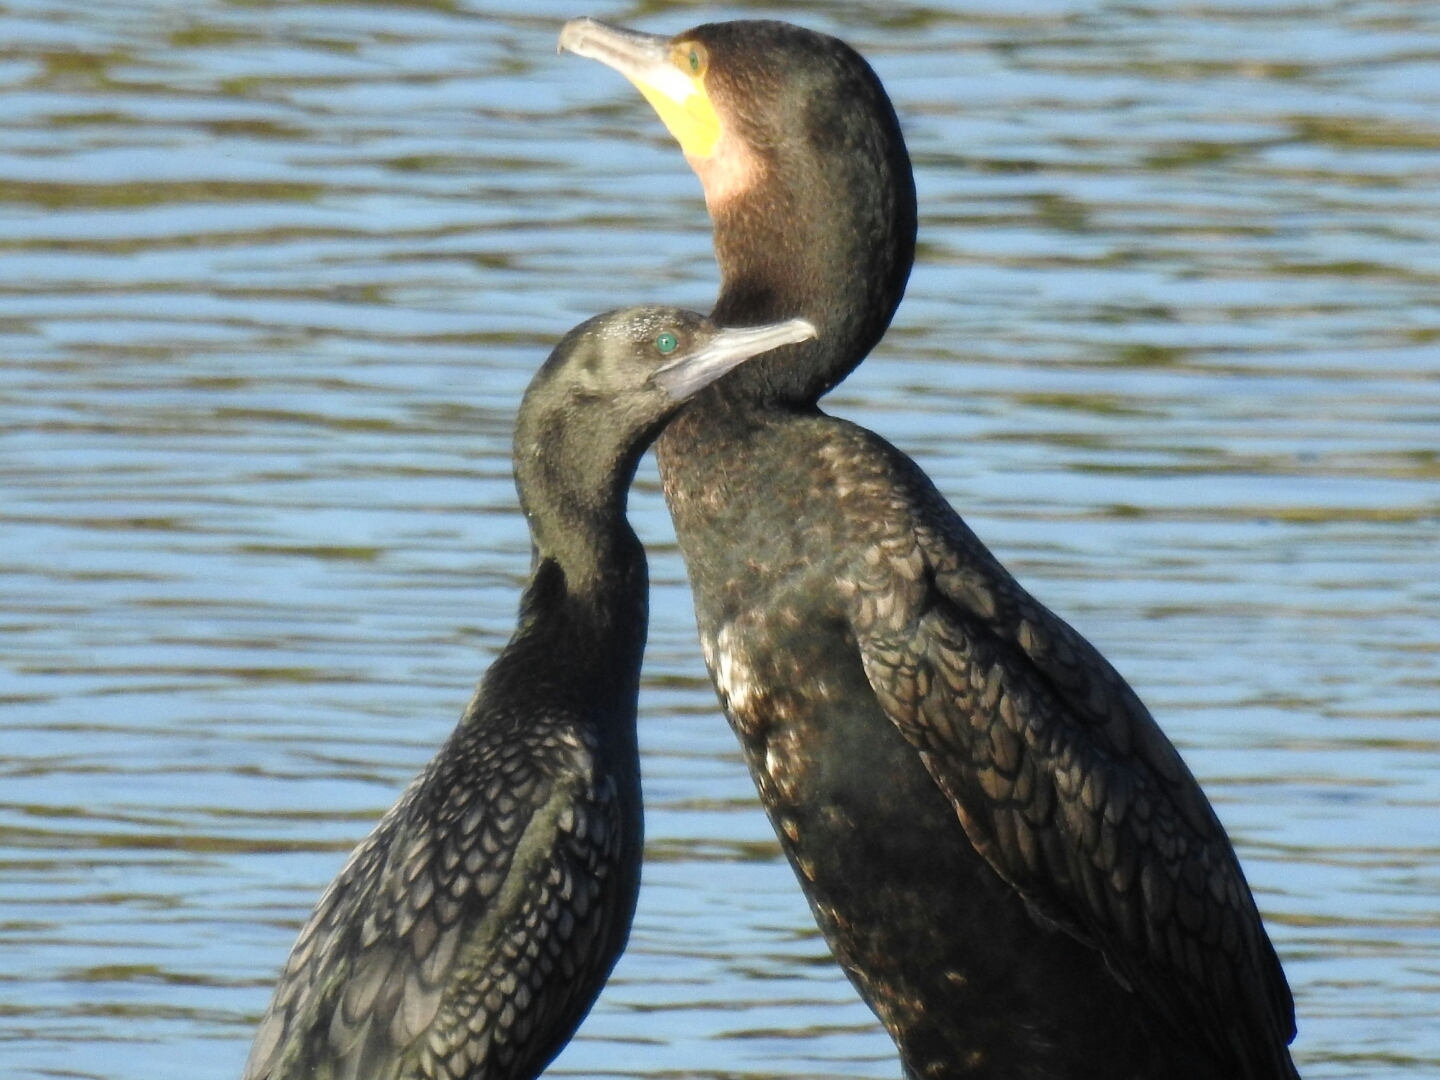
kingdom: Animalia
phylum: Chordata
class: Aves
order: Suliformes
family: Phalacrocoracidae
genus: Phalacrocorax
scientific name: Phalacrocorax carbo
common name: Great cormorant
